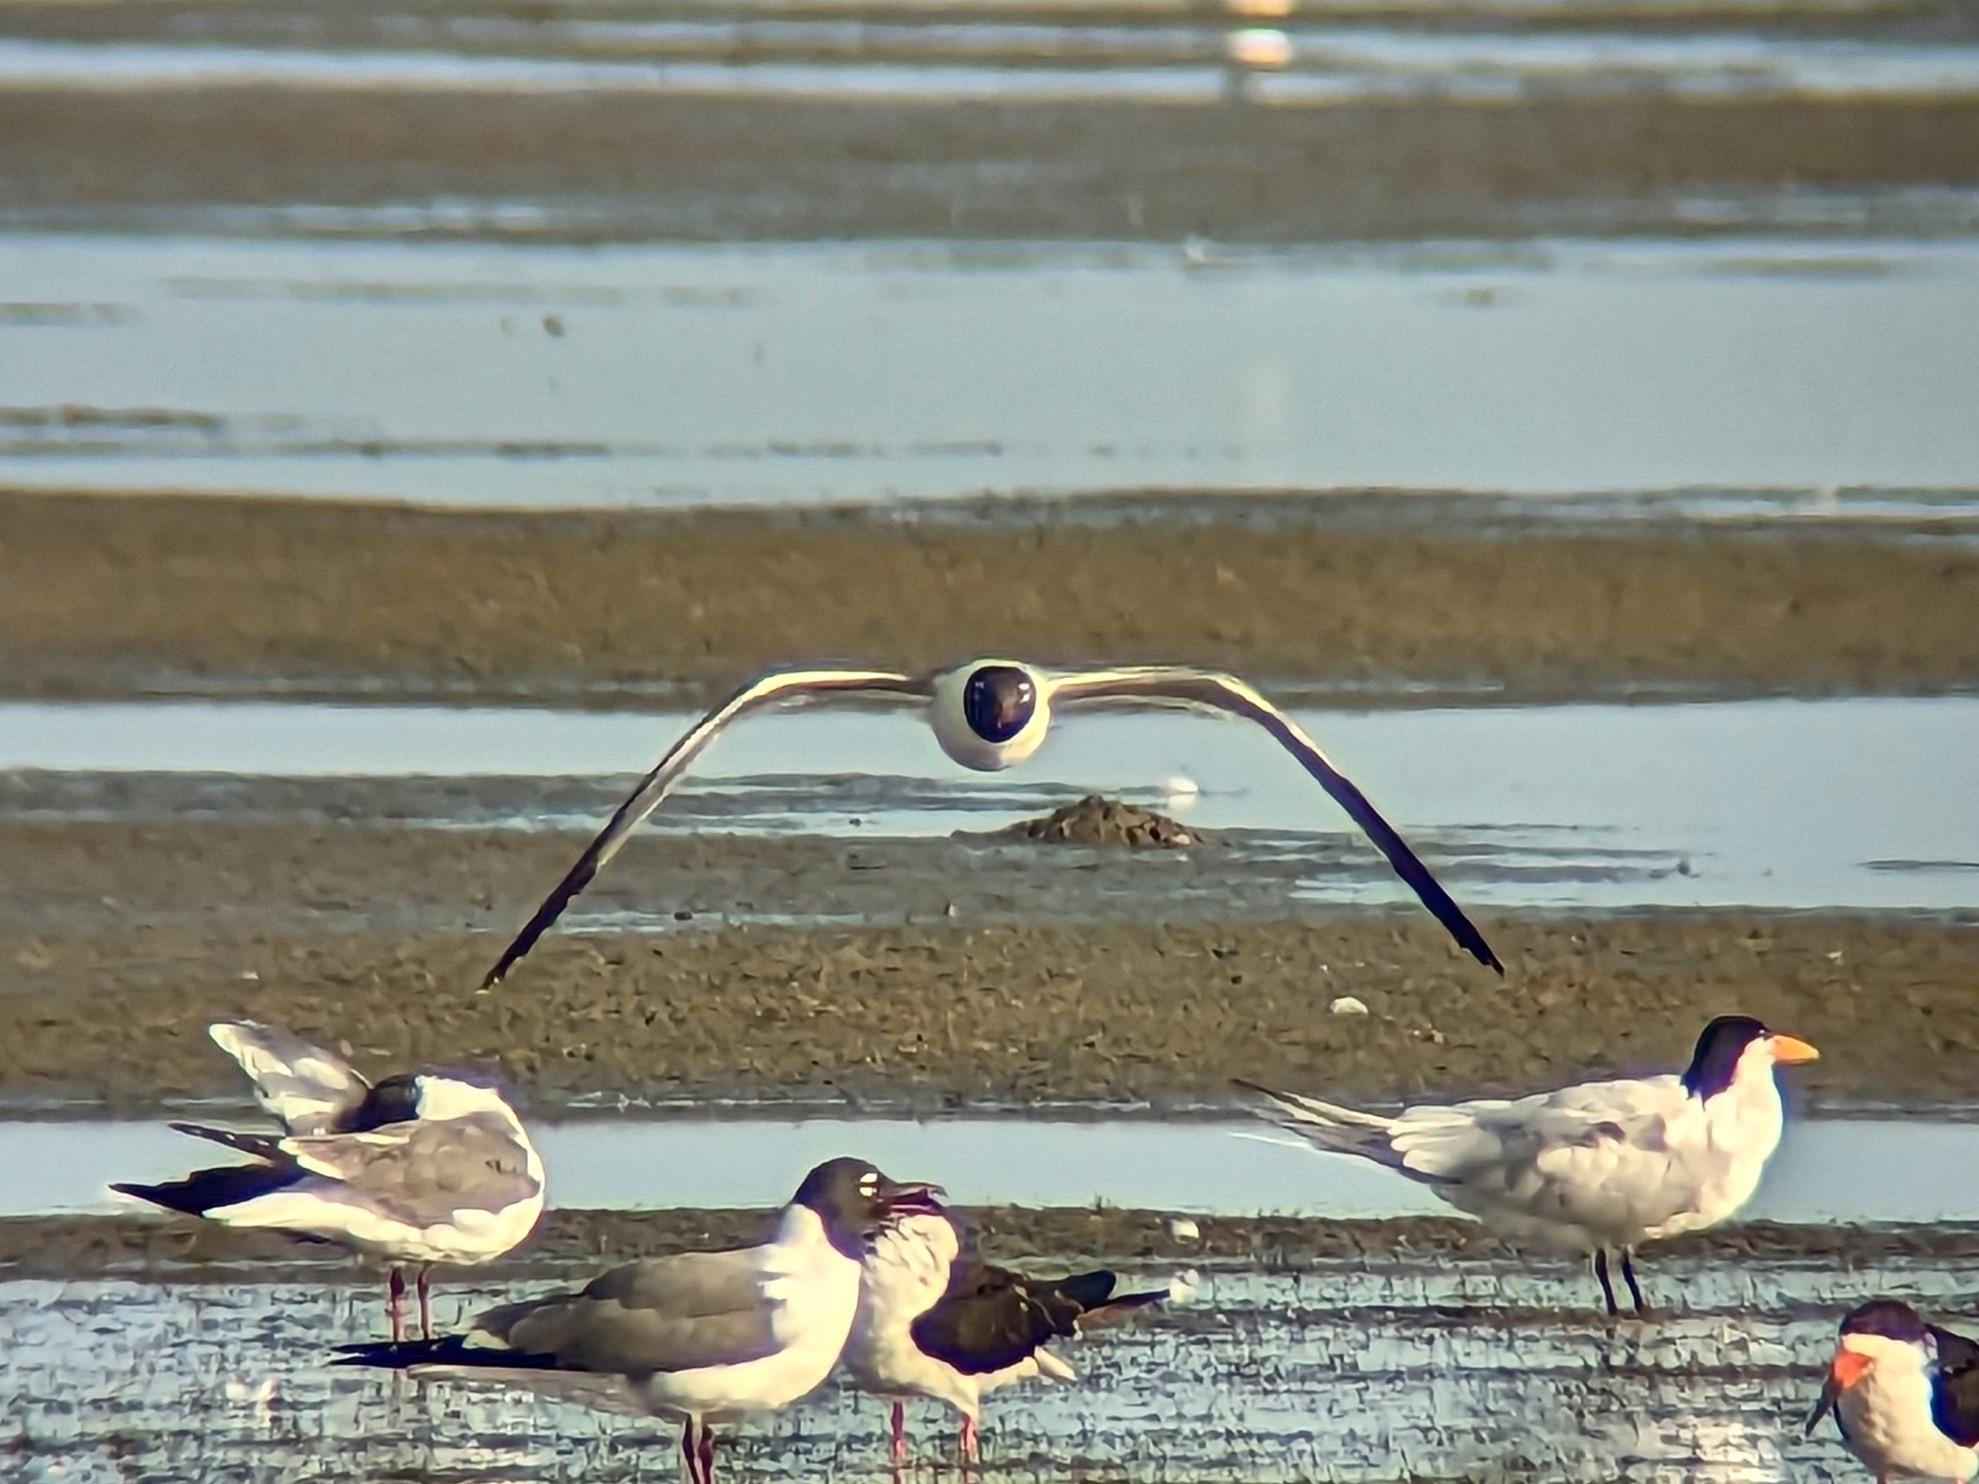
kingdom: Animalia
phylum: Chordata
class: Aves
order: Charadriiformes
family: Laridae
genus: Leucophaeus
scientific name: Leucophaeus atricilla
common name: Laughing gull
